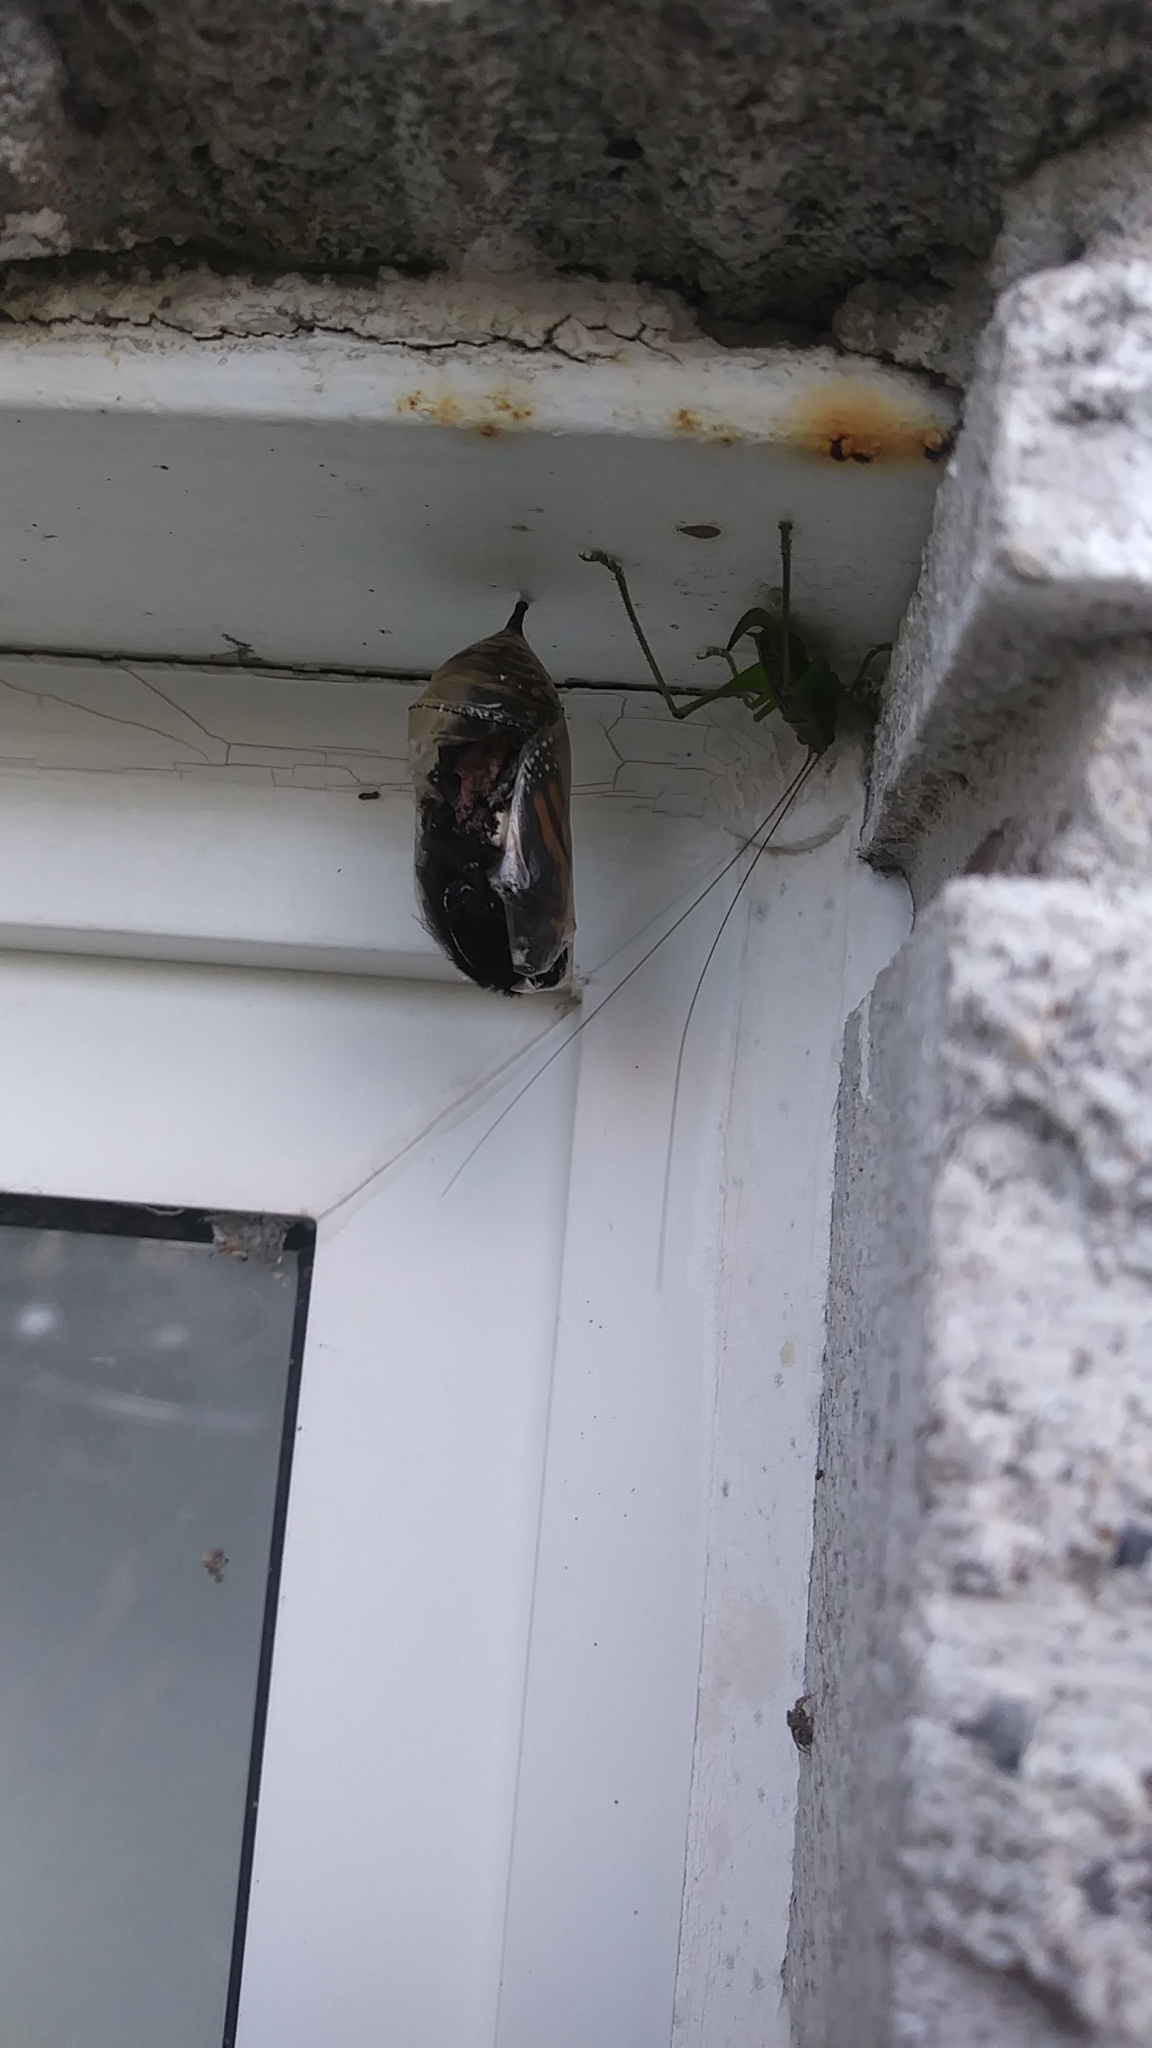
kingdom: Animalia
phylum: Arthropoda
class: Insecta
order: Lepidoptera
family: Nymphalidae
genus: Danaus
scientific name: Danaus plexippus
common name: Monarch
